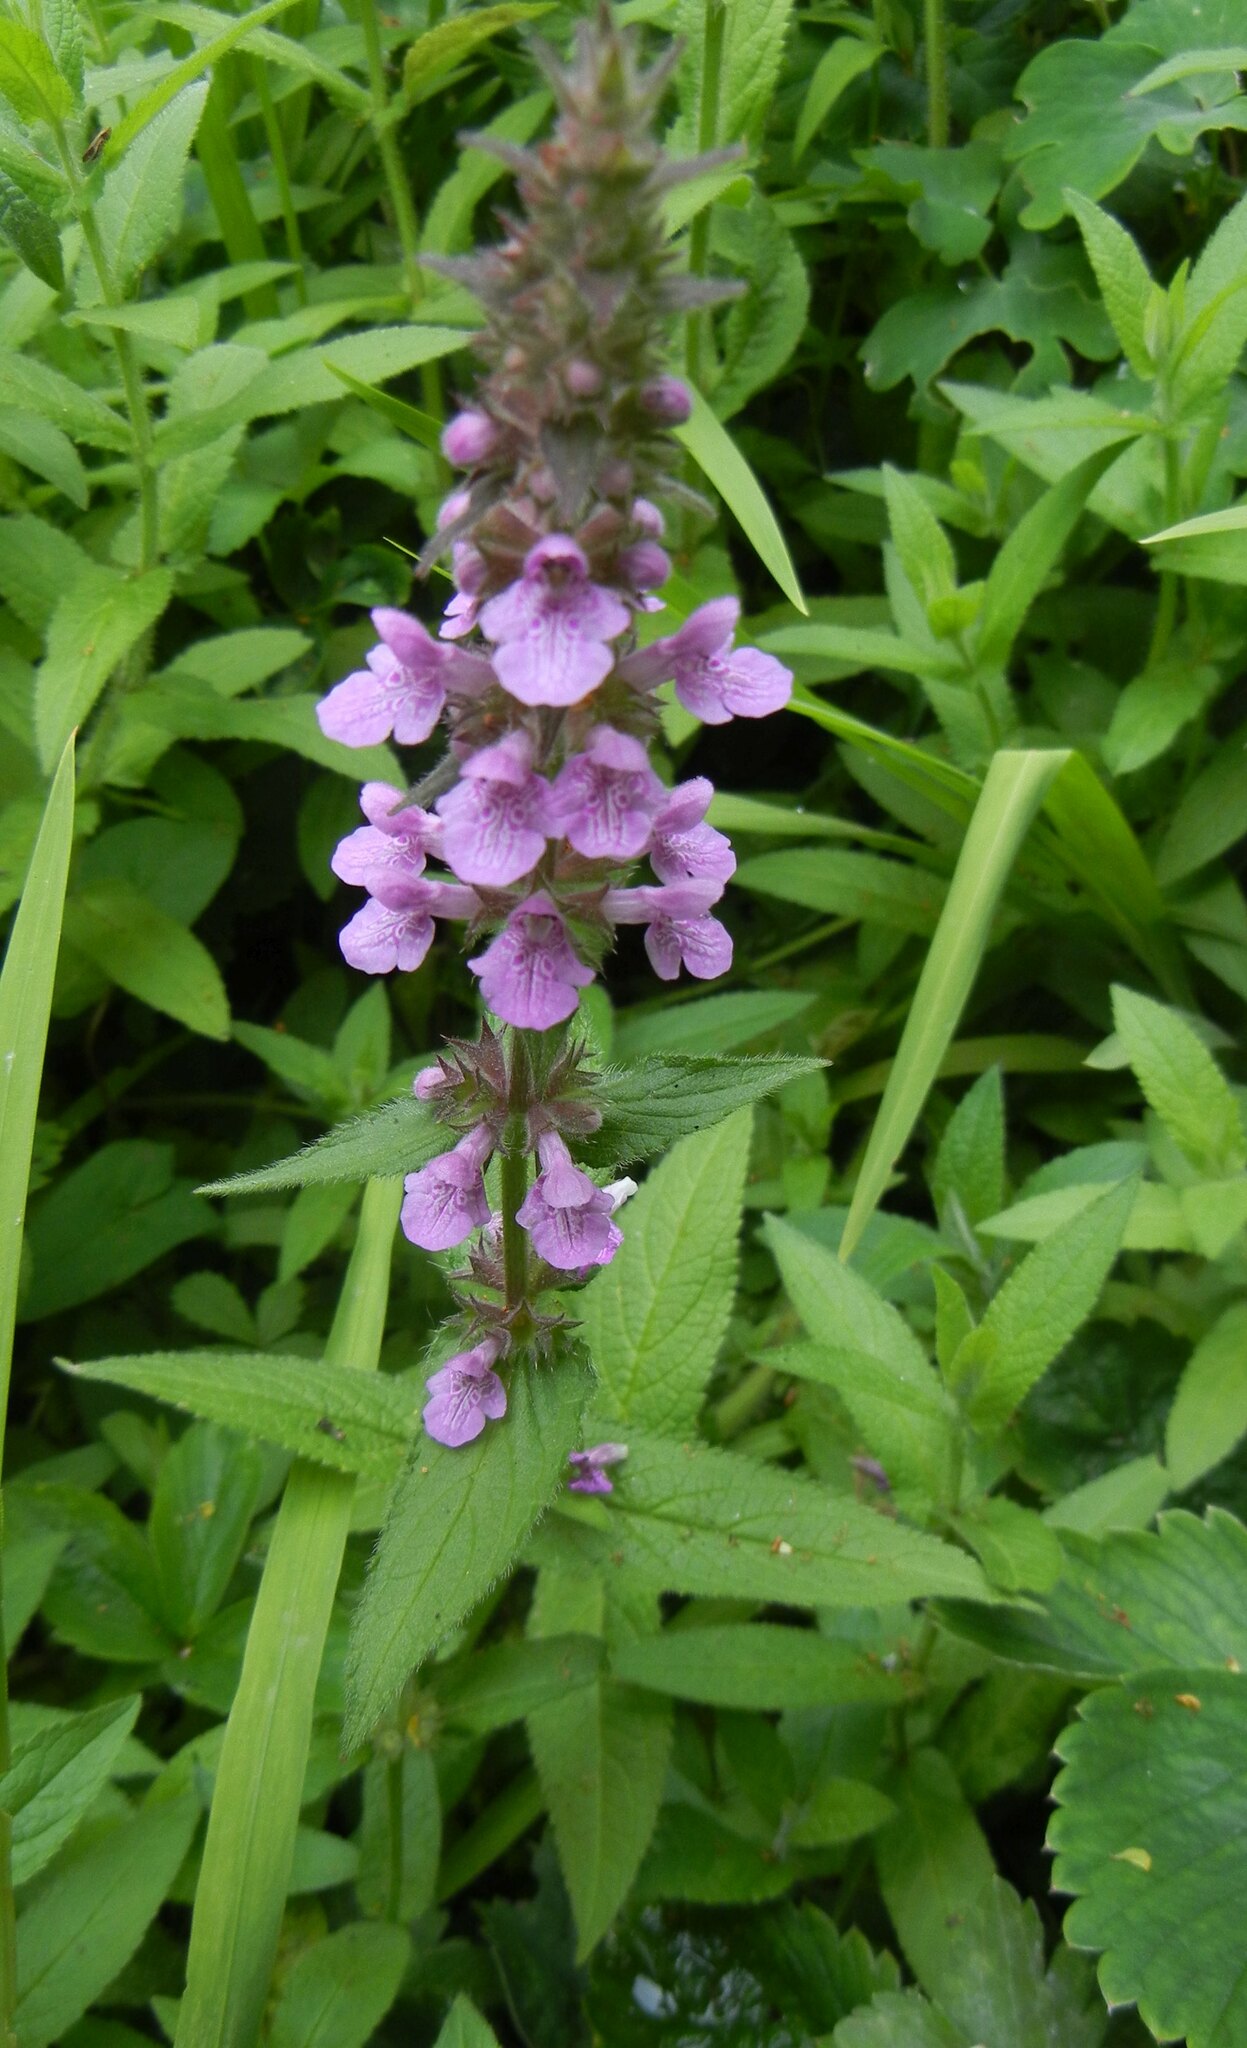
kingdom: Plantae
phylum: Tracheophyta
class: Magnoliopsida
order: Lamiales
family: Lamiaceae
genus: Stachys
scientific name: Stachys palustris
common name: Marsh woundwort
